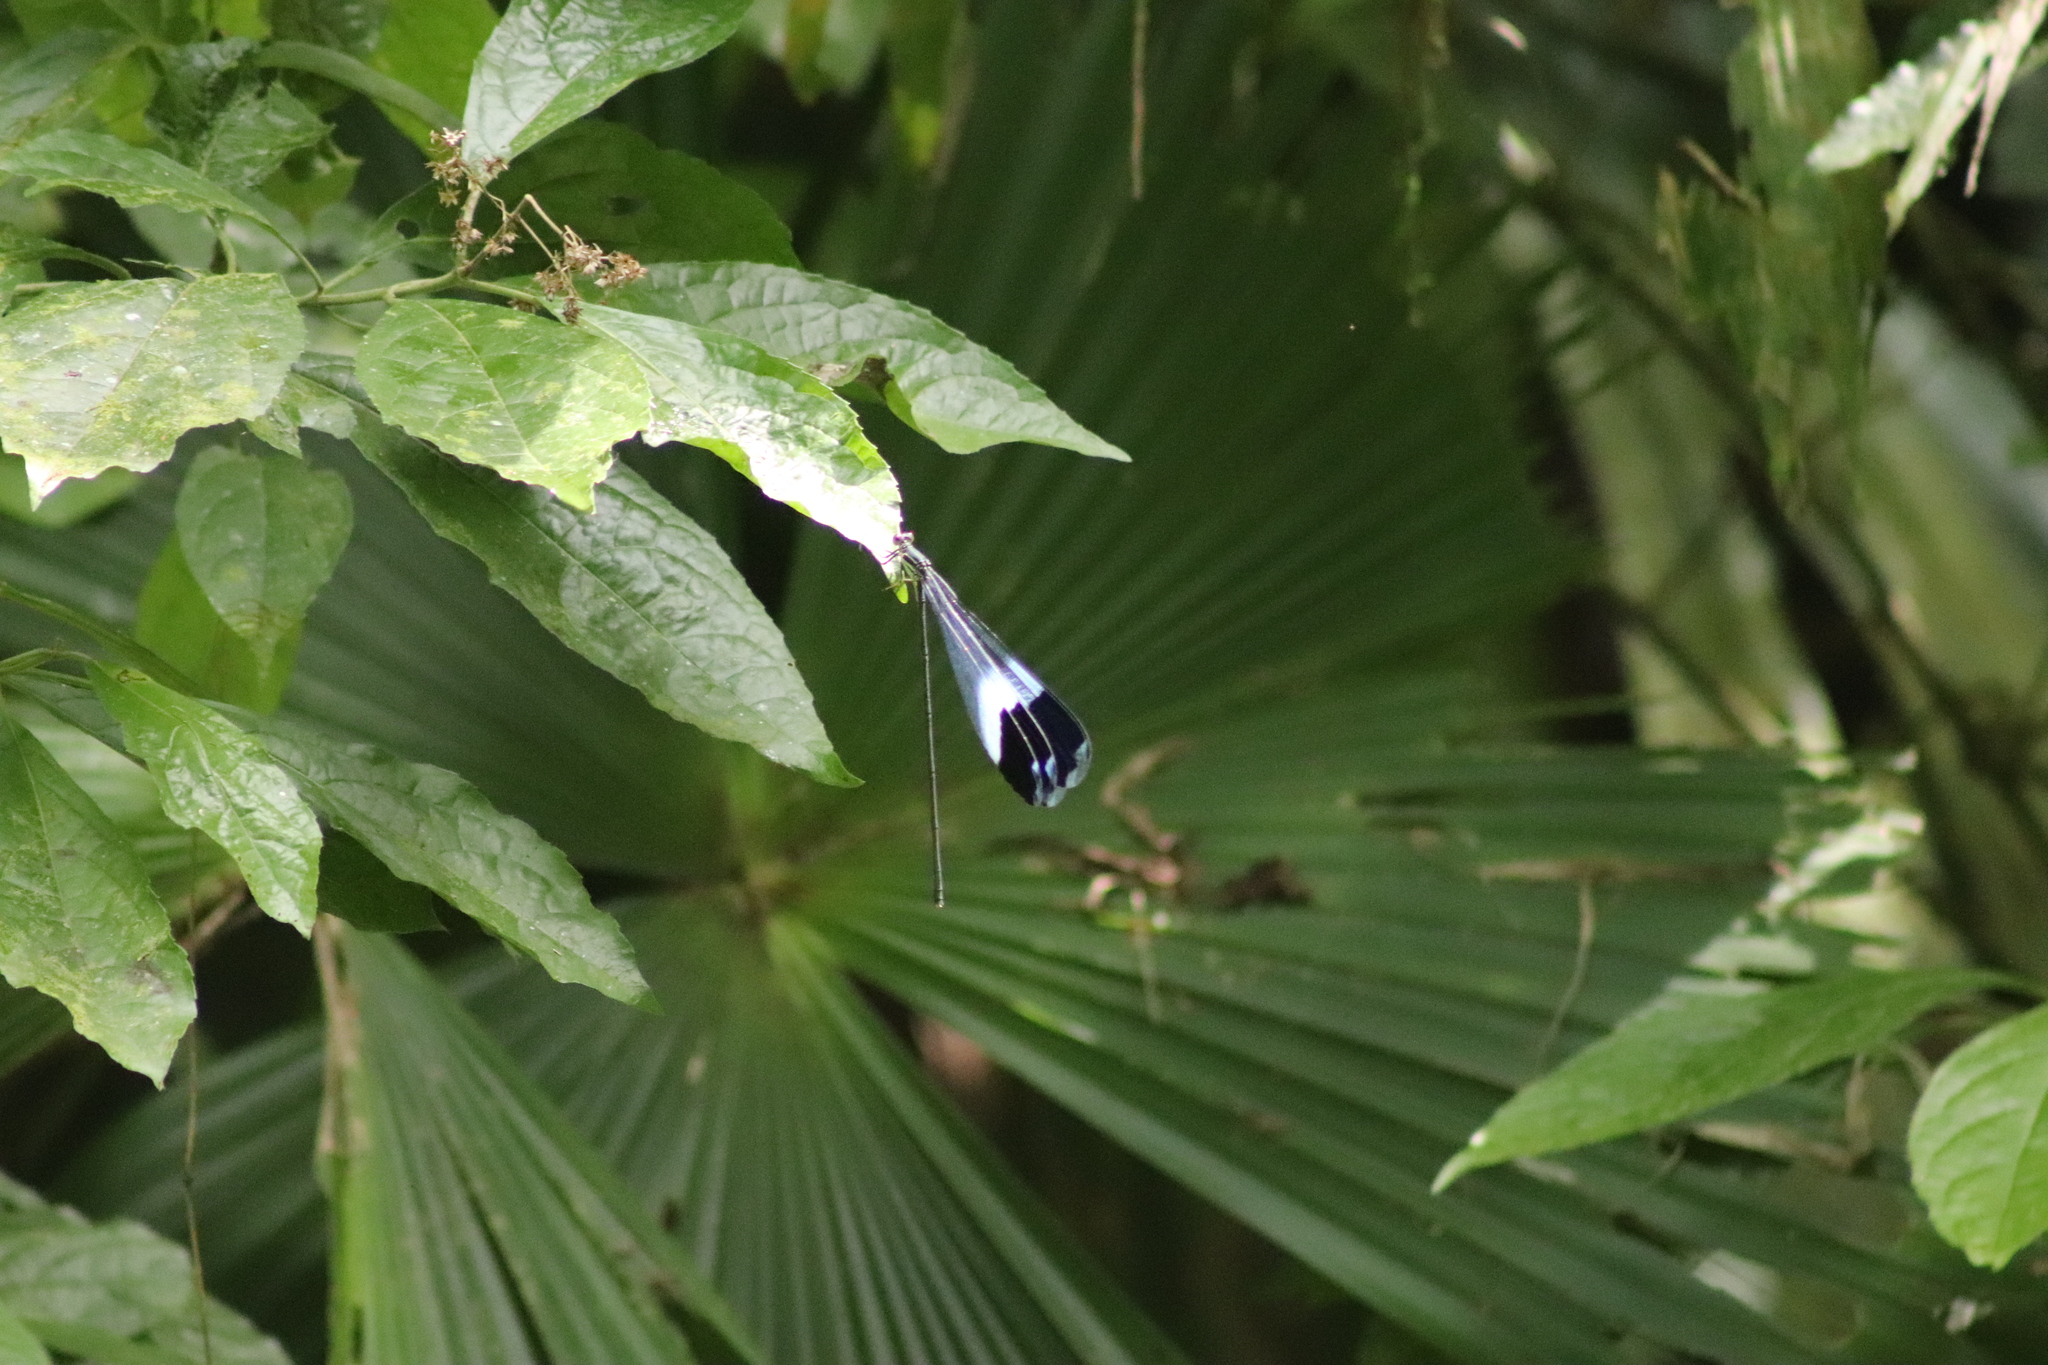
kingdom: Animalia
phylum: Arthropoda
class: Insecta
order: Odonata
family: Coenagrionidae
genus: Megaloprepus
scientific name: Megaloprepus caerulatus
